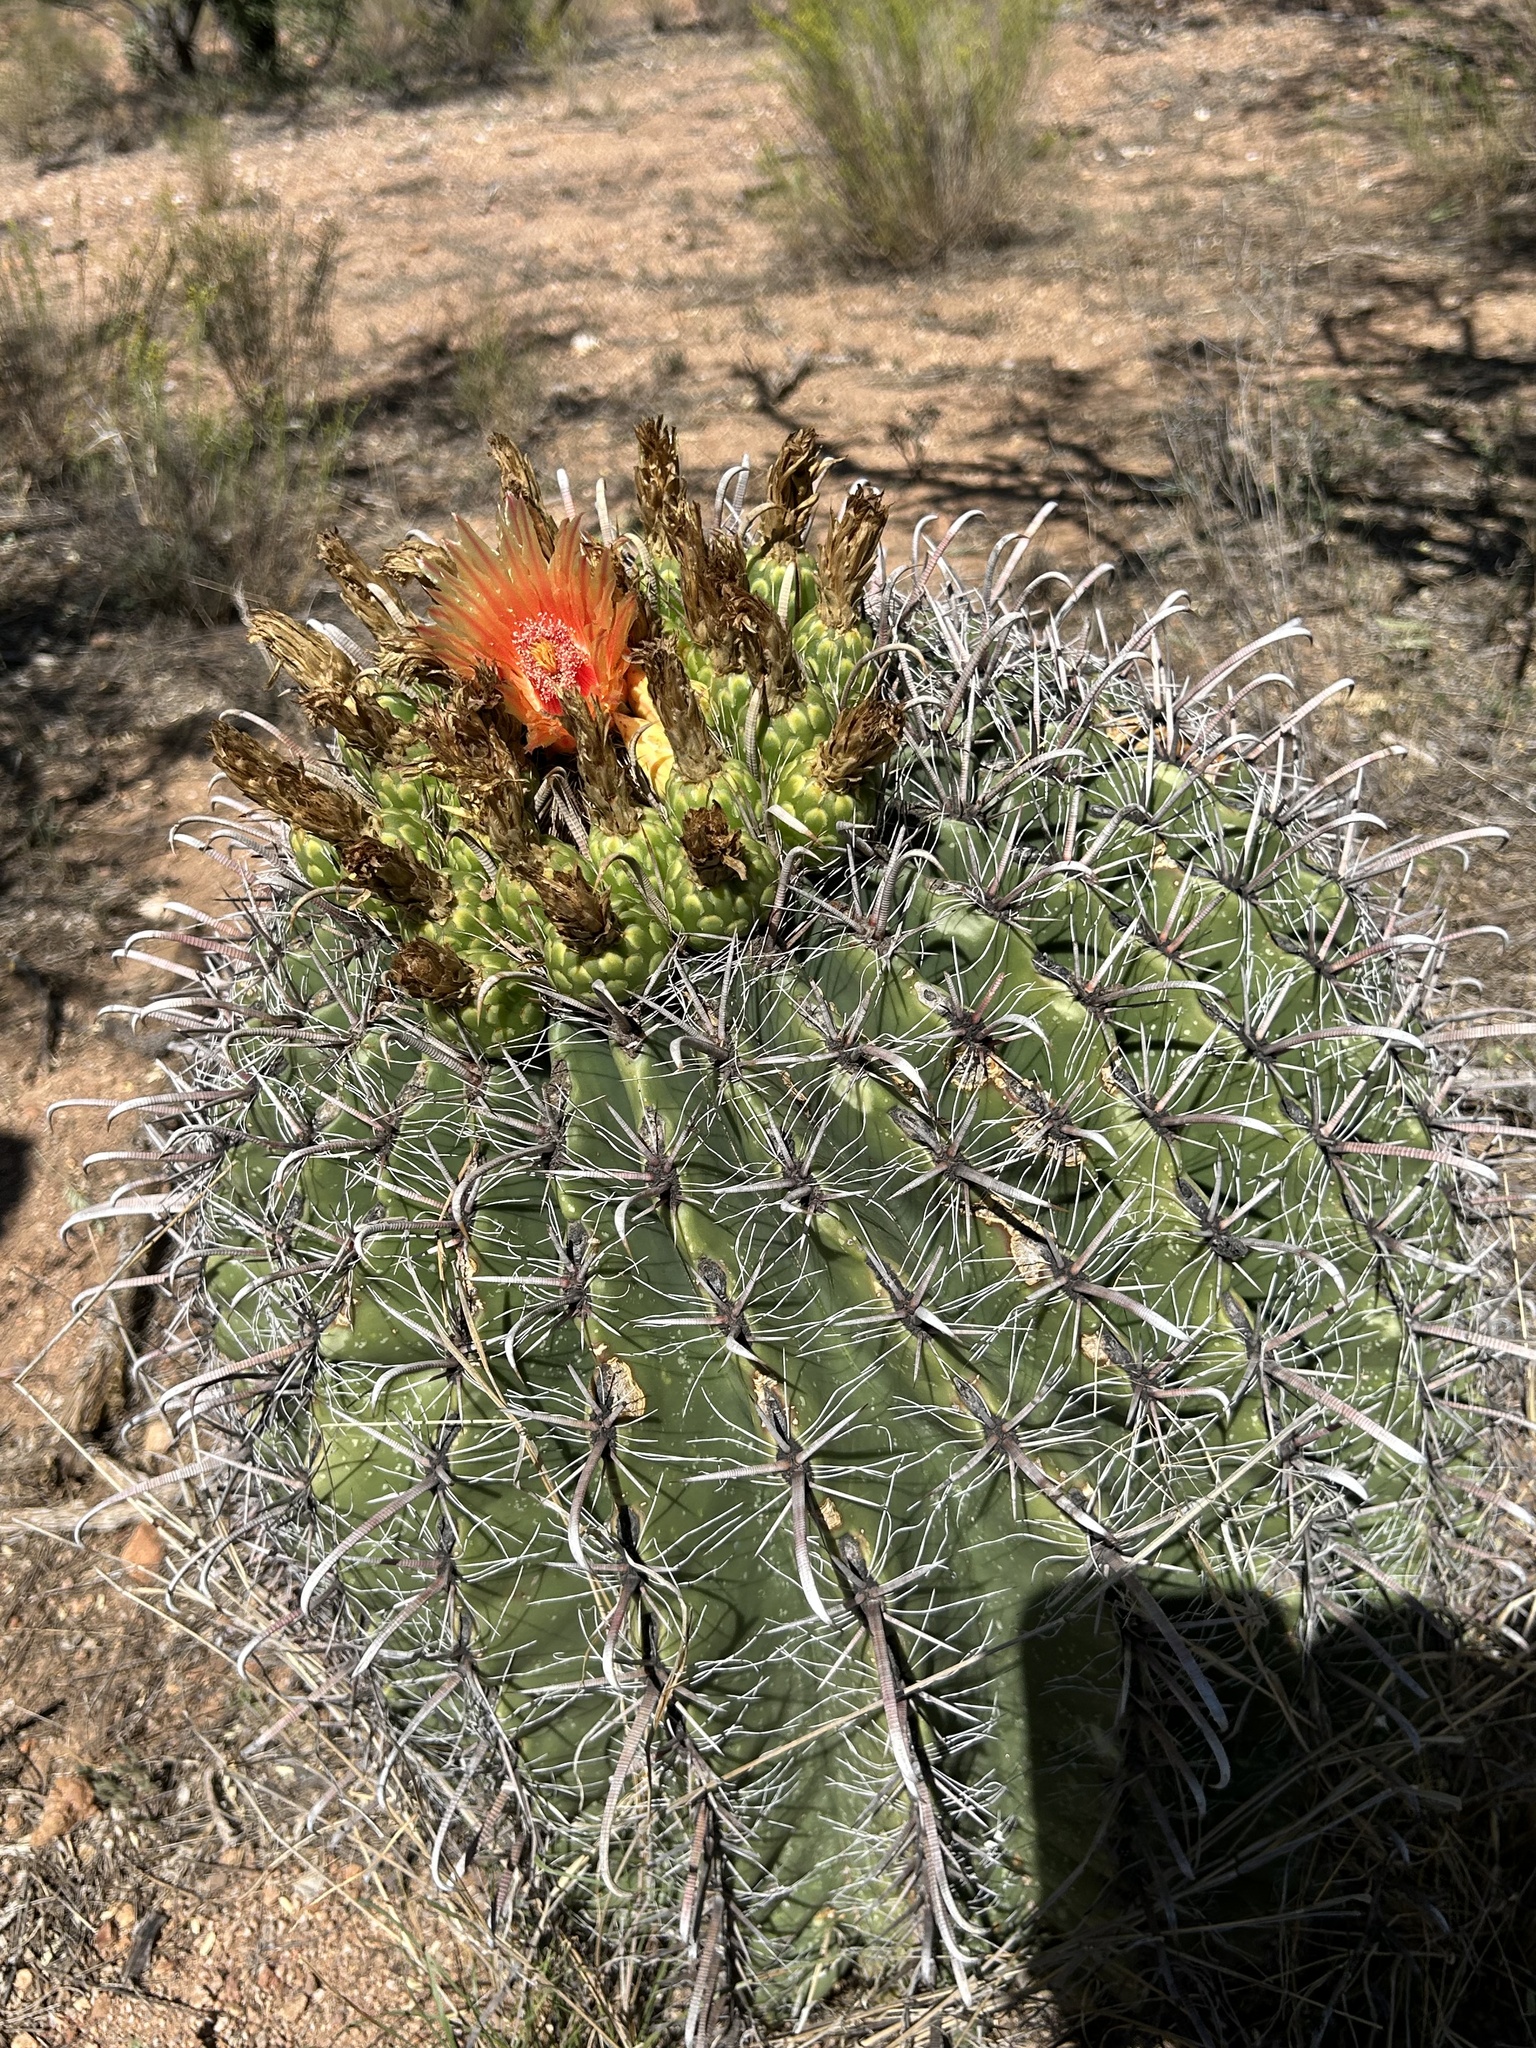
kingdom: Plantae
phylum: Tracheophyta
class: Magnoliopsida
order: Caryophyllales
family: Cactaceae
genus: Ferocactus
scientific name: Ferocactus wislizeni
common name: Candy barrel cactus
